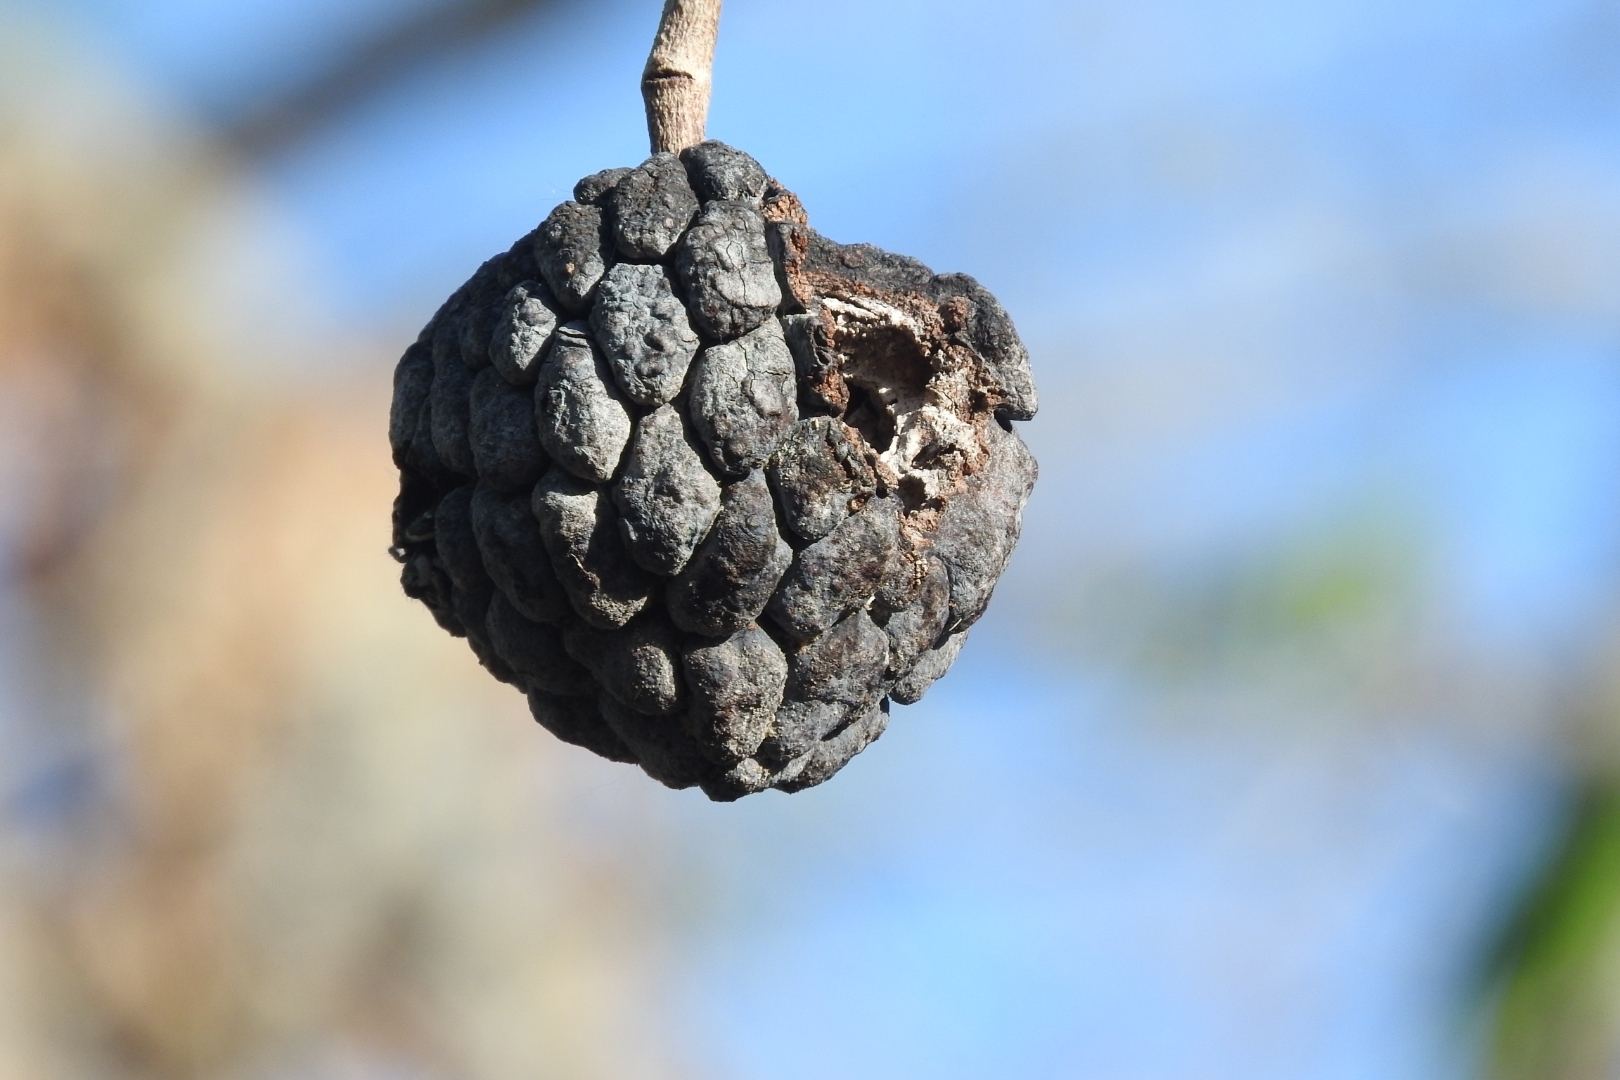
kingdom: Plantae
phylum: Tracheophyta
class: Magnoliopsida
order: Magnoliales
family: Annonaceae
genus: Annona
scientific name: Annona squamosa
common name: Custard-apple
